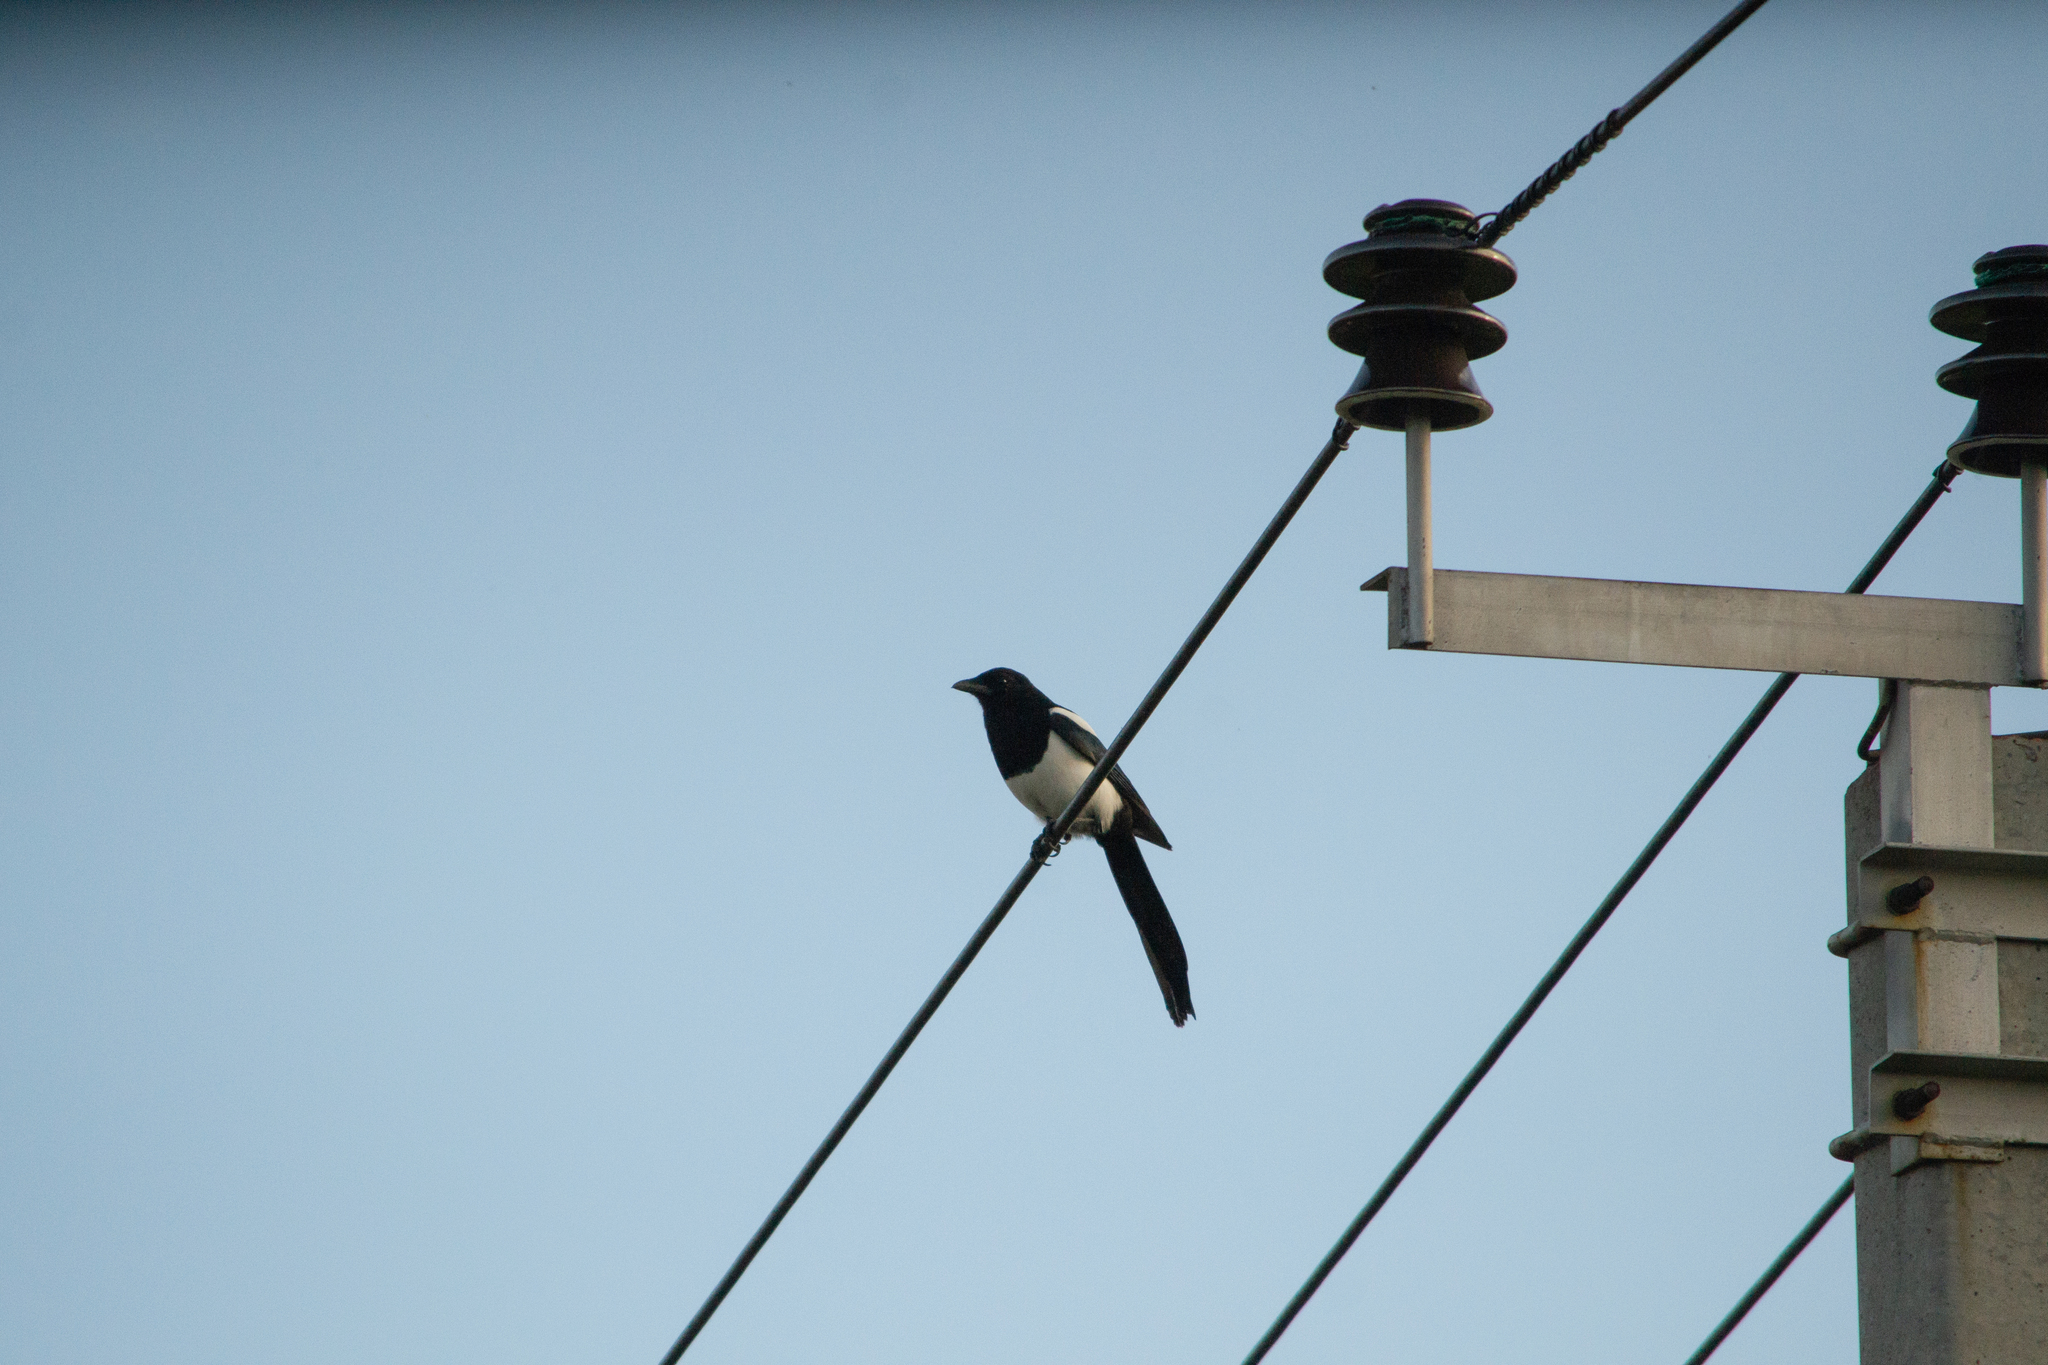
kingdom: Animalia
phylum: Chordata
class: Aves
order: Passeriformes
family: Corvidae
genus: Pica
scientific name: Pica pica
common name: Eurasian magpie
